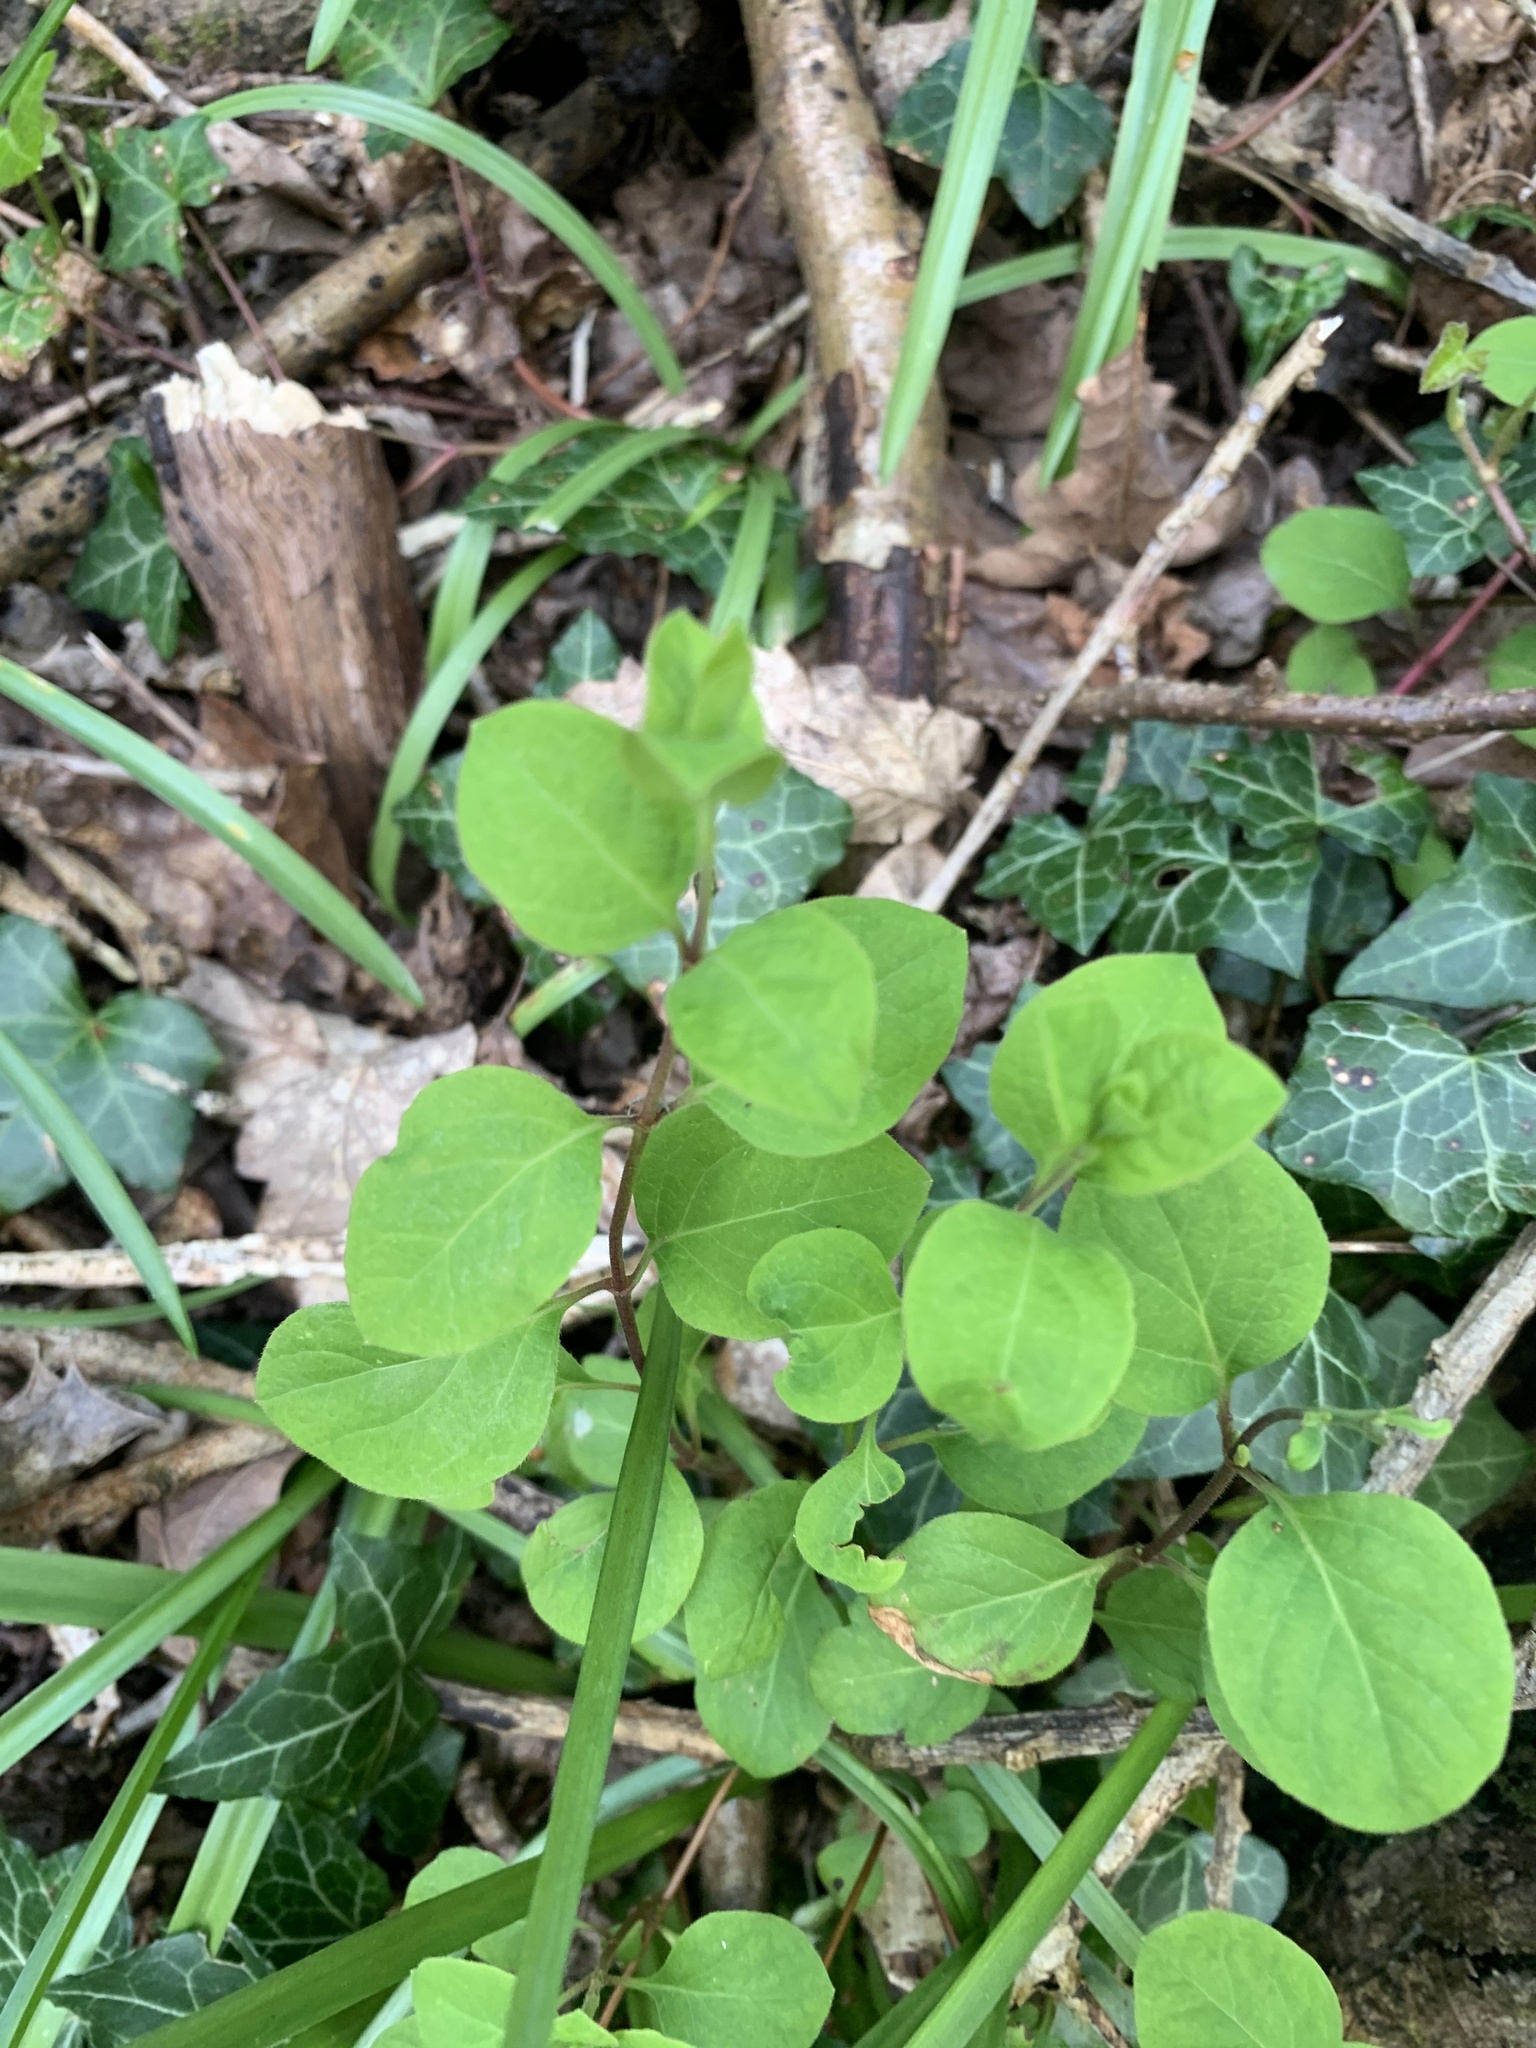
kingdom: Plantae
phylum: Tracheophyta
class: Magnoliopsida
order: Dipsacales
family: Caprifoliaceae
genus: Symphoricarpos
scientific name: Symphoricarpos albus
